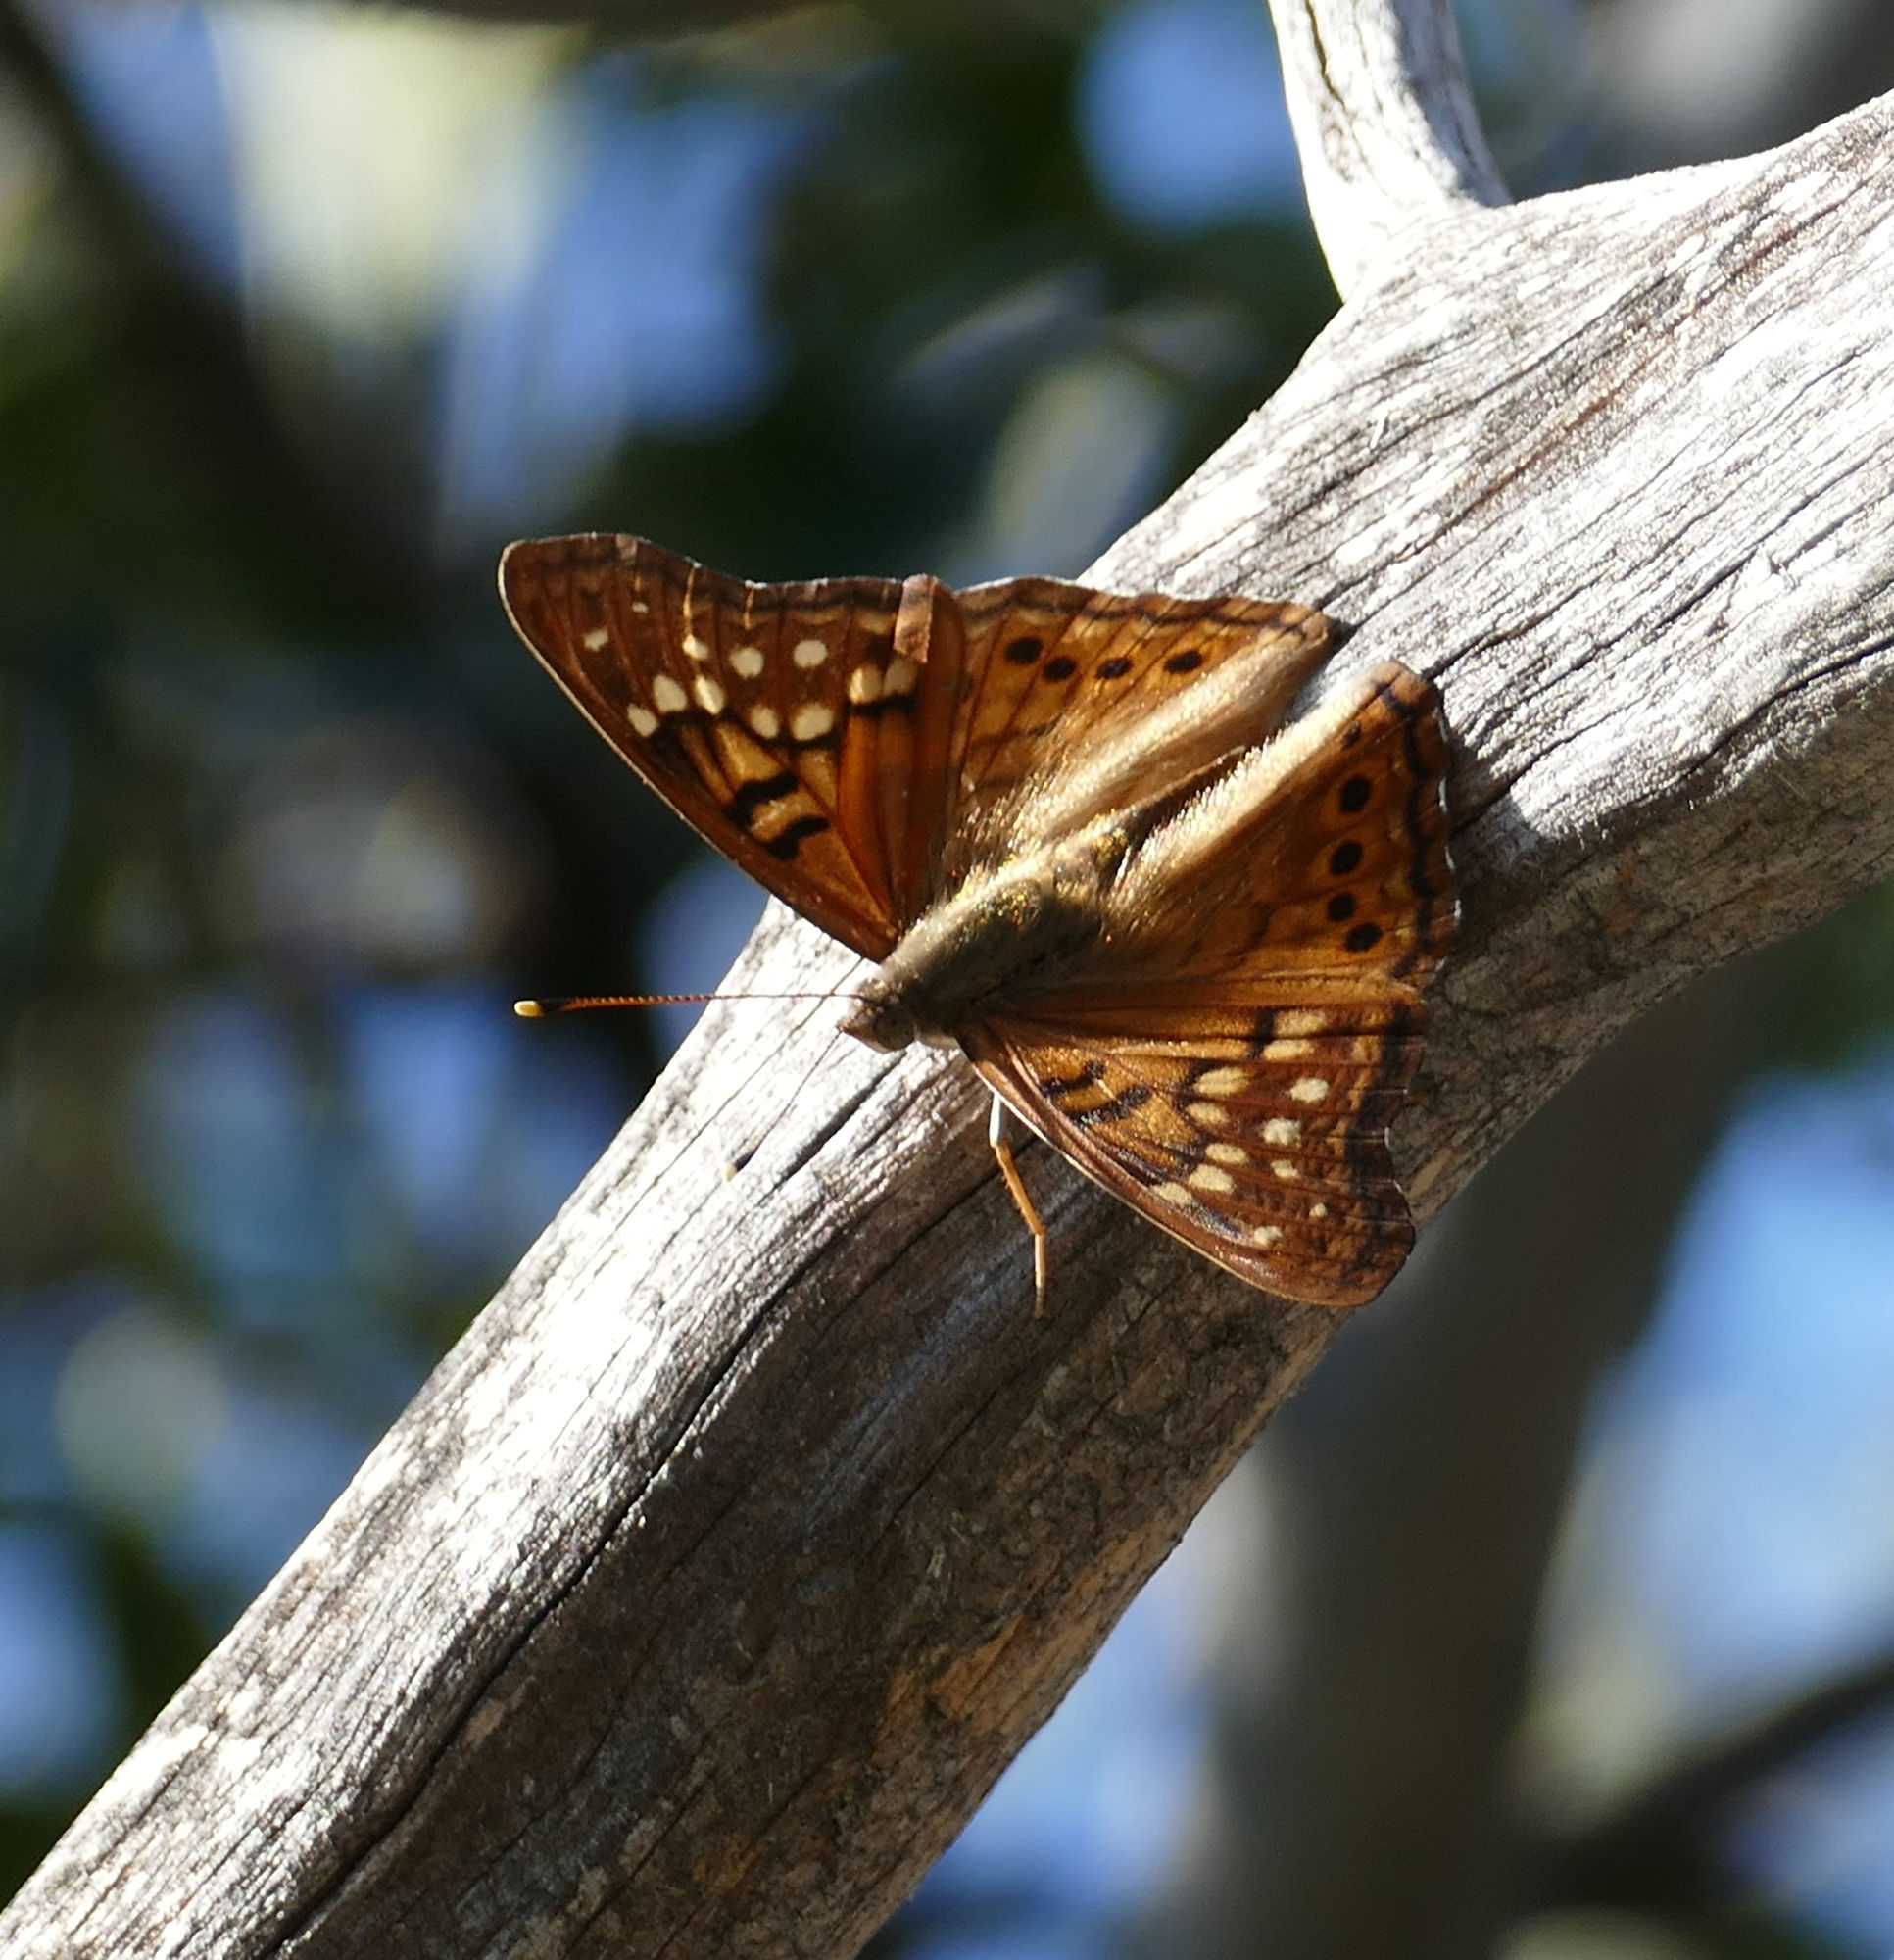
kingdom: Animalia
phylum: Arthropoda
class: Insecta
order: Lepidoptera
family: Nymphalidae
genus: Asterocampa
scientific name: Asterocampa clyton
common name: Tawny emperor
